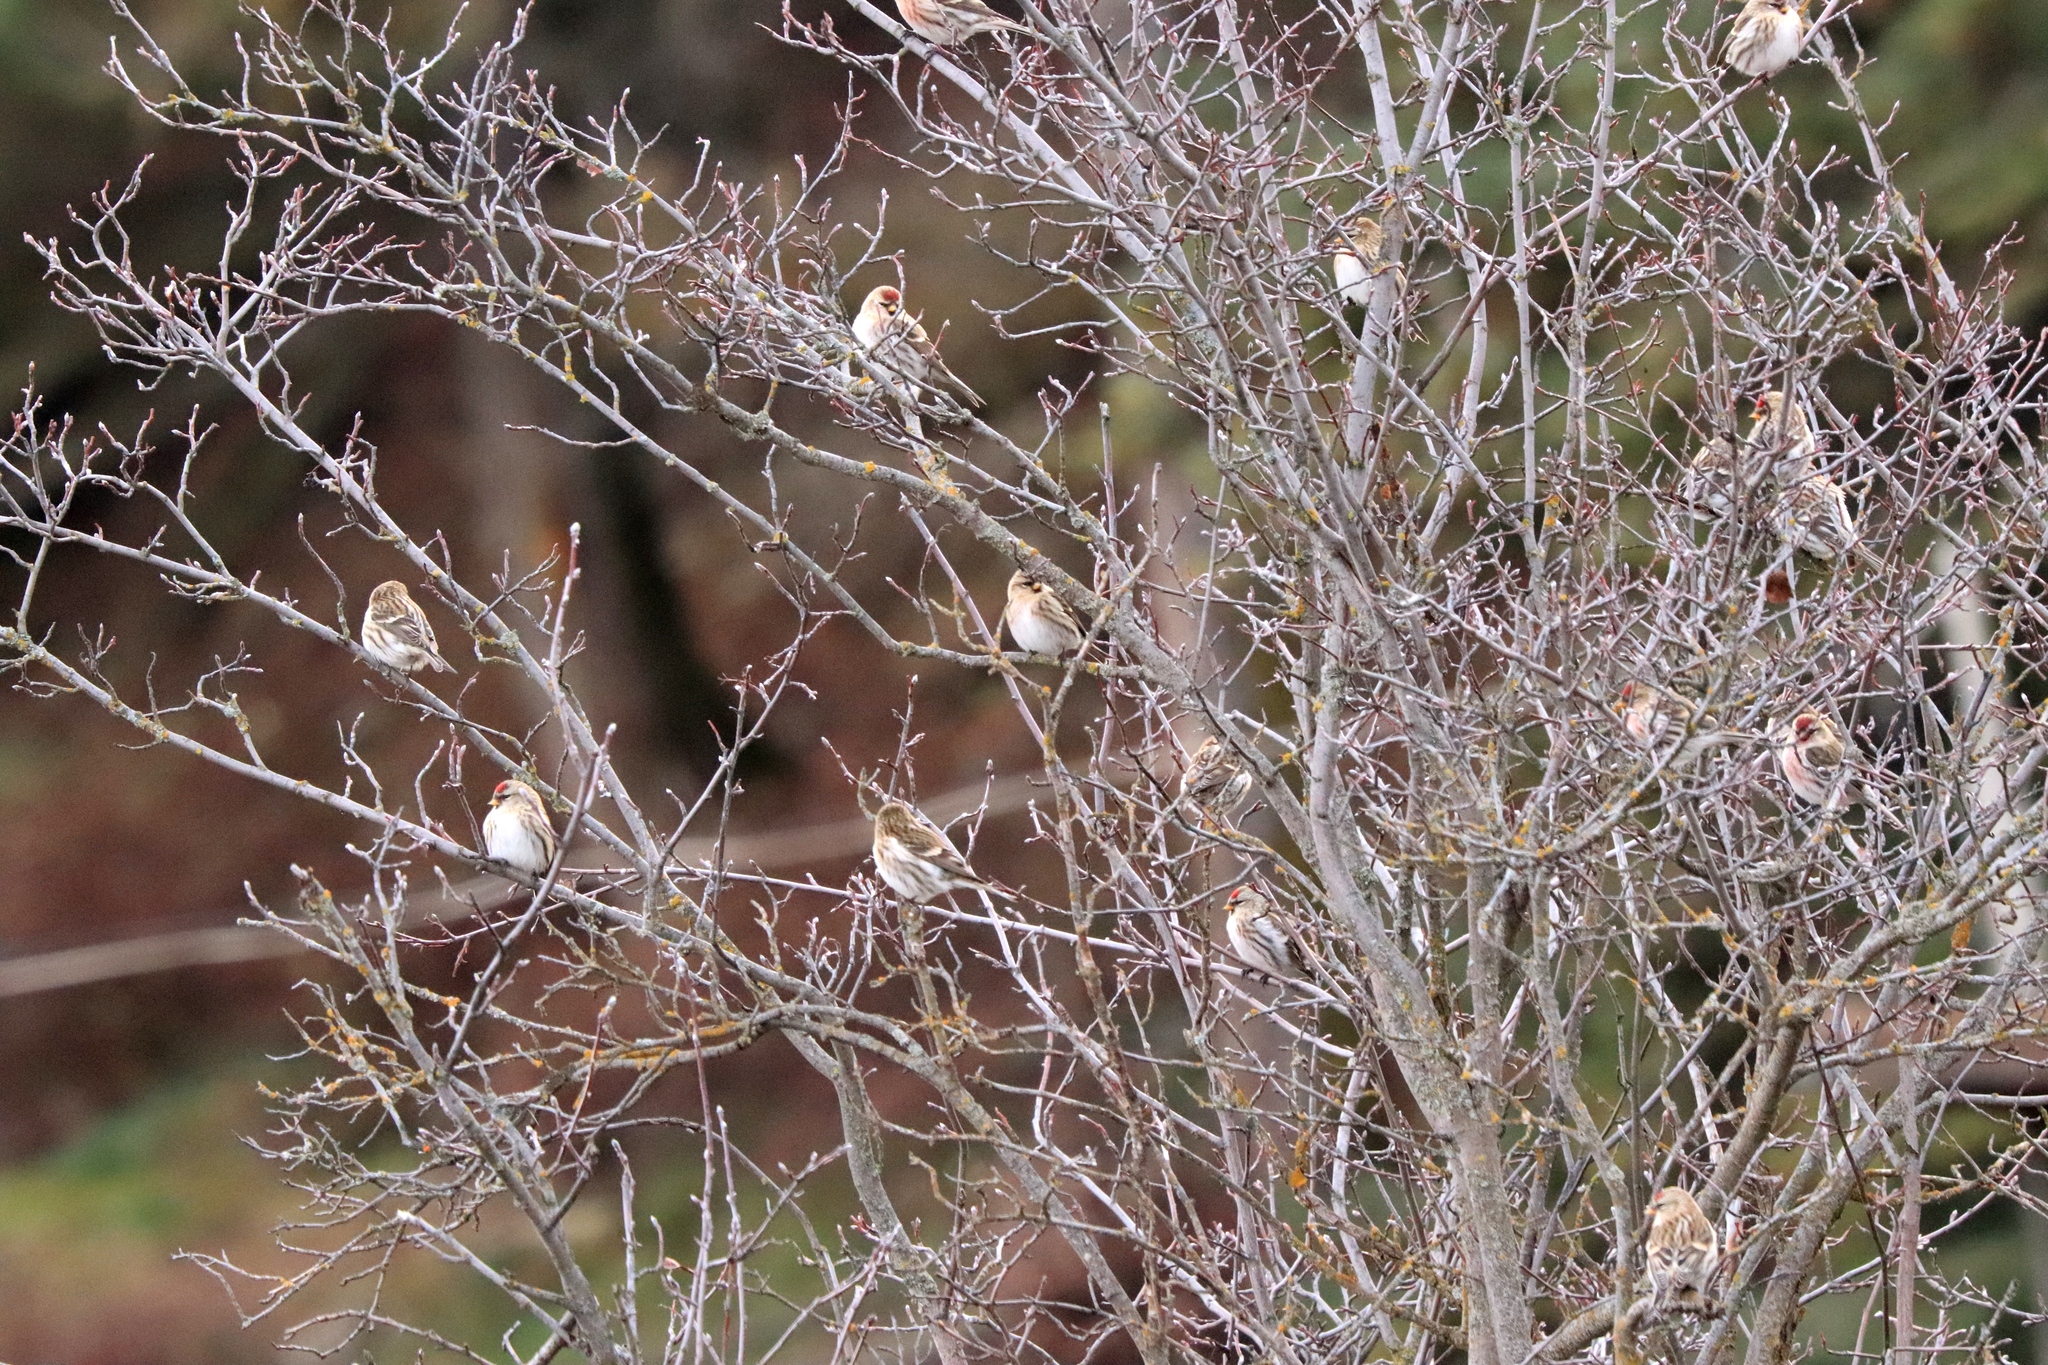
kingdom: Animalia
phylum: Chordata
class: Aves
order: Passeriformes
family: Fringillidae
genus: Acanthis
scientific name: Acanthis flammea
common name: Common redpoll
